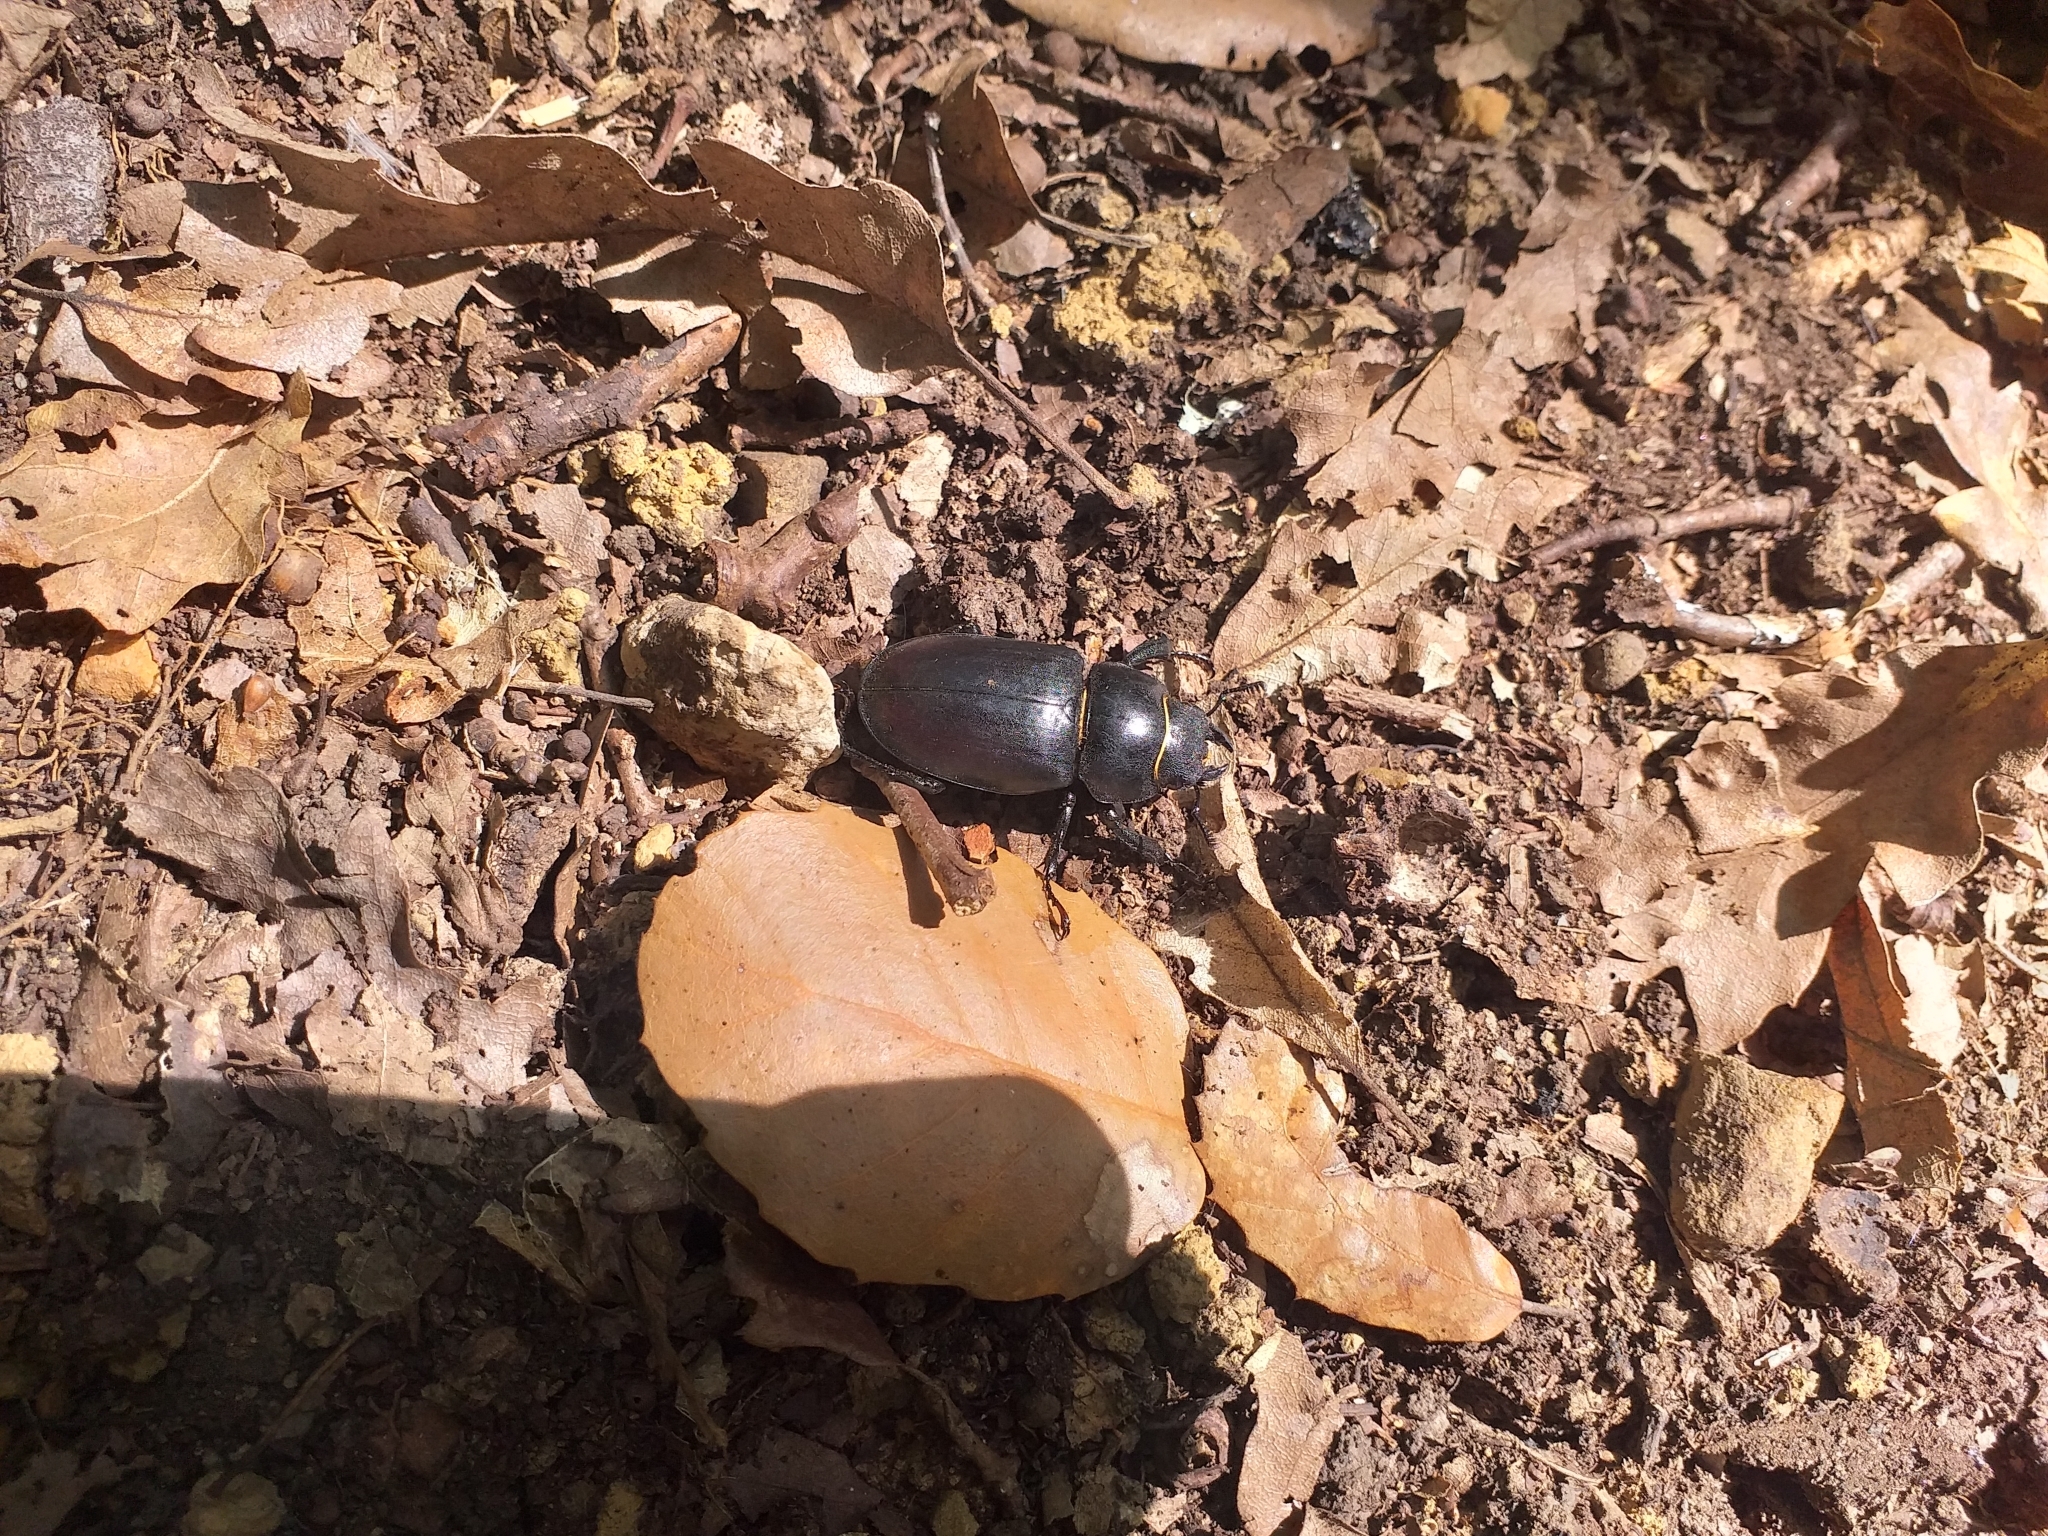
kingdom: Animalia
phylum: Arthropoda
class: Insecta
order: Coleoptera
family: Lucanidae
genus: Lucanus
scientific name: Lucanus cervus
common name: Stag beetle
